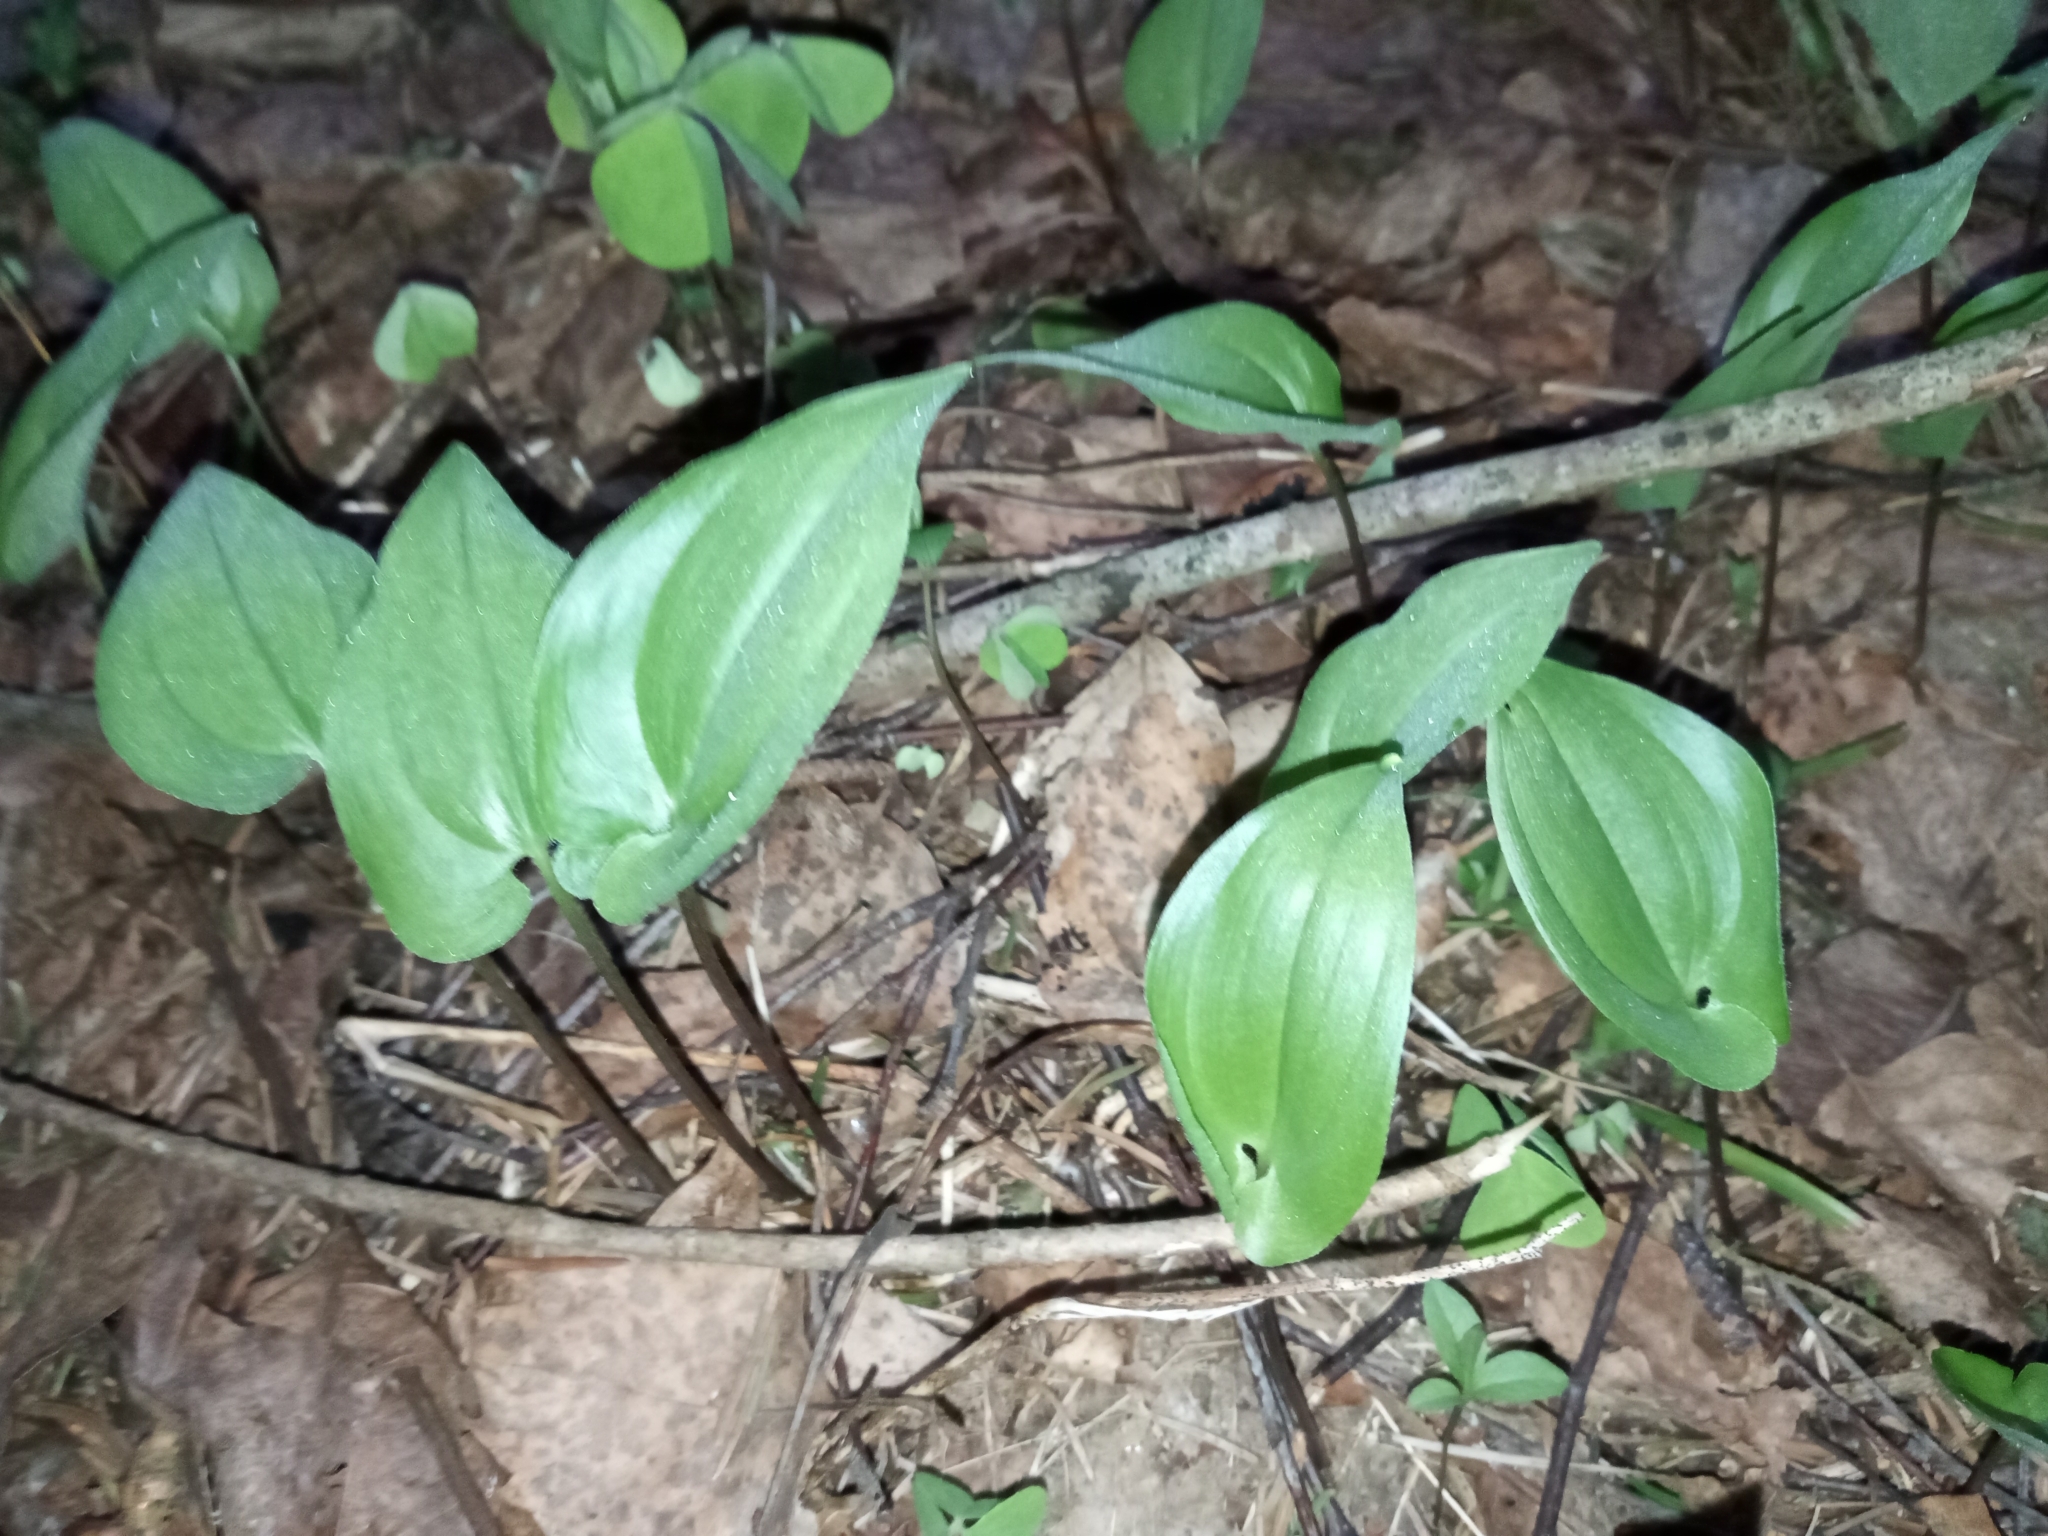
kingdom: Plantae
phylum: Tracheophyta
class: Liliopsida
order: Asparagales
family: Asparagaceae
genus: Maianthemum
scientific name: Maianthemum bifolium
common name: May lily
